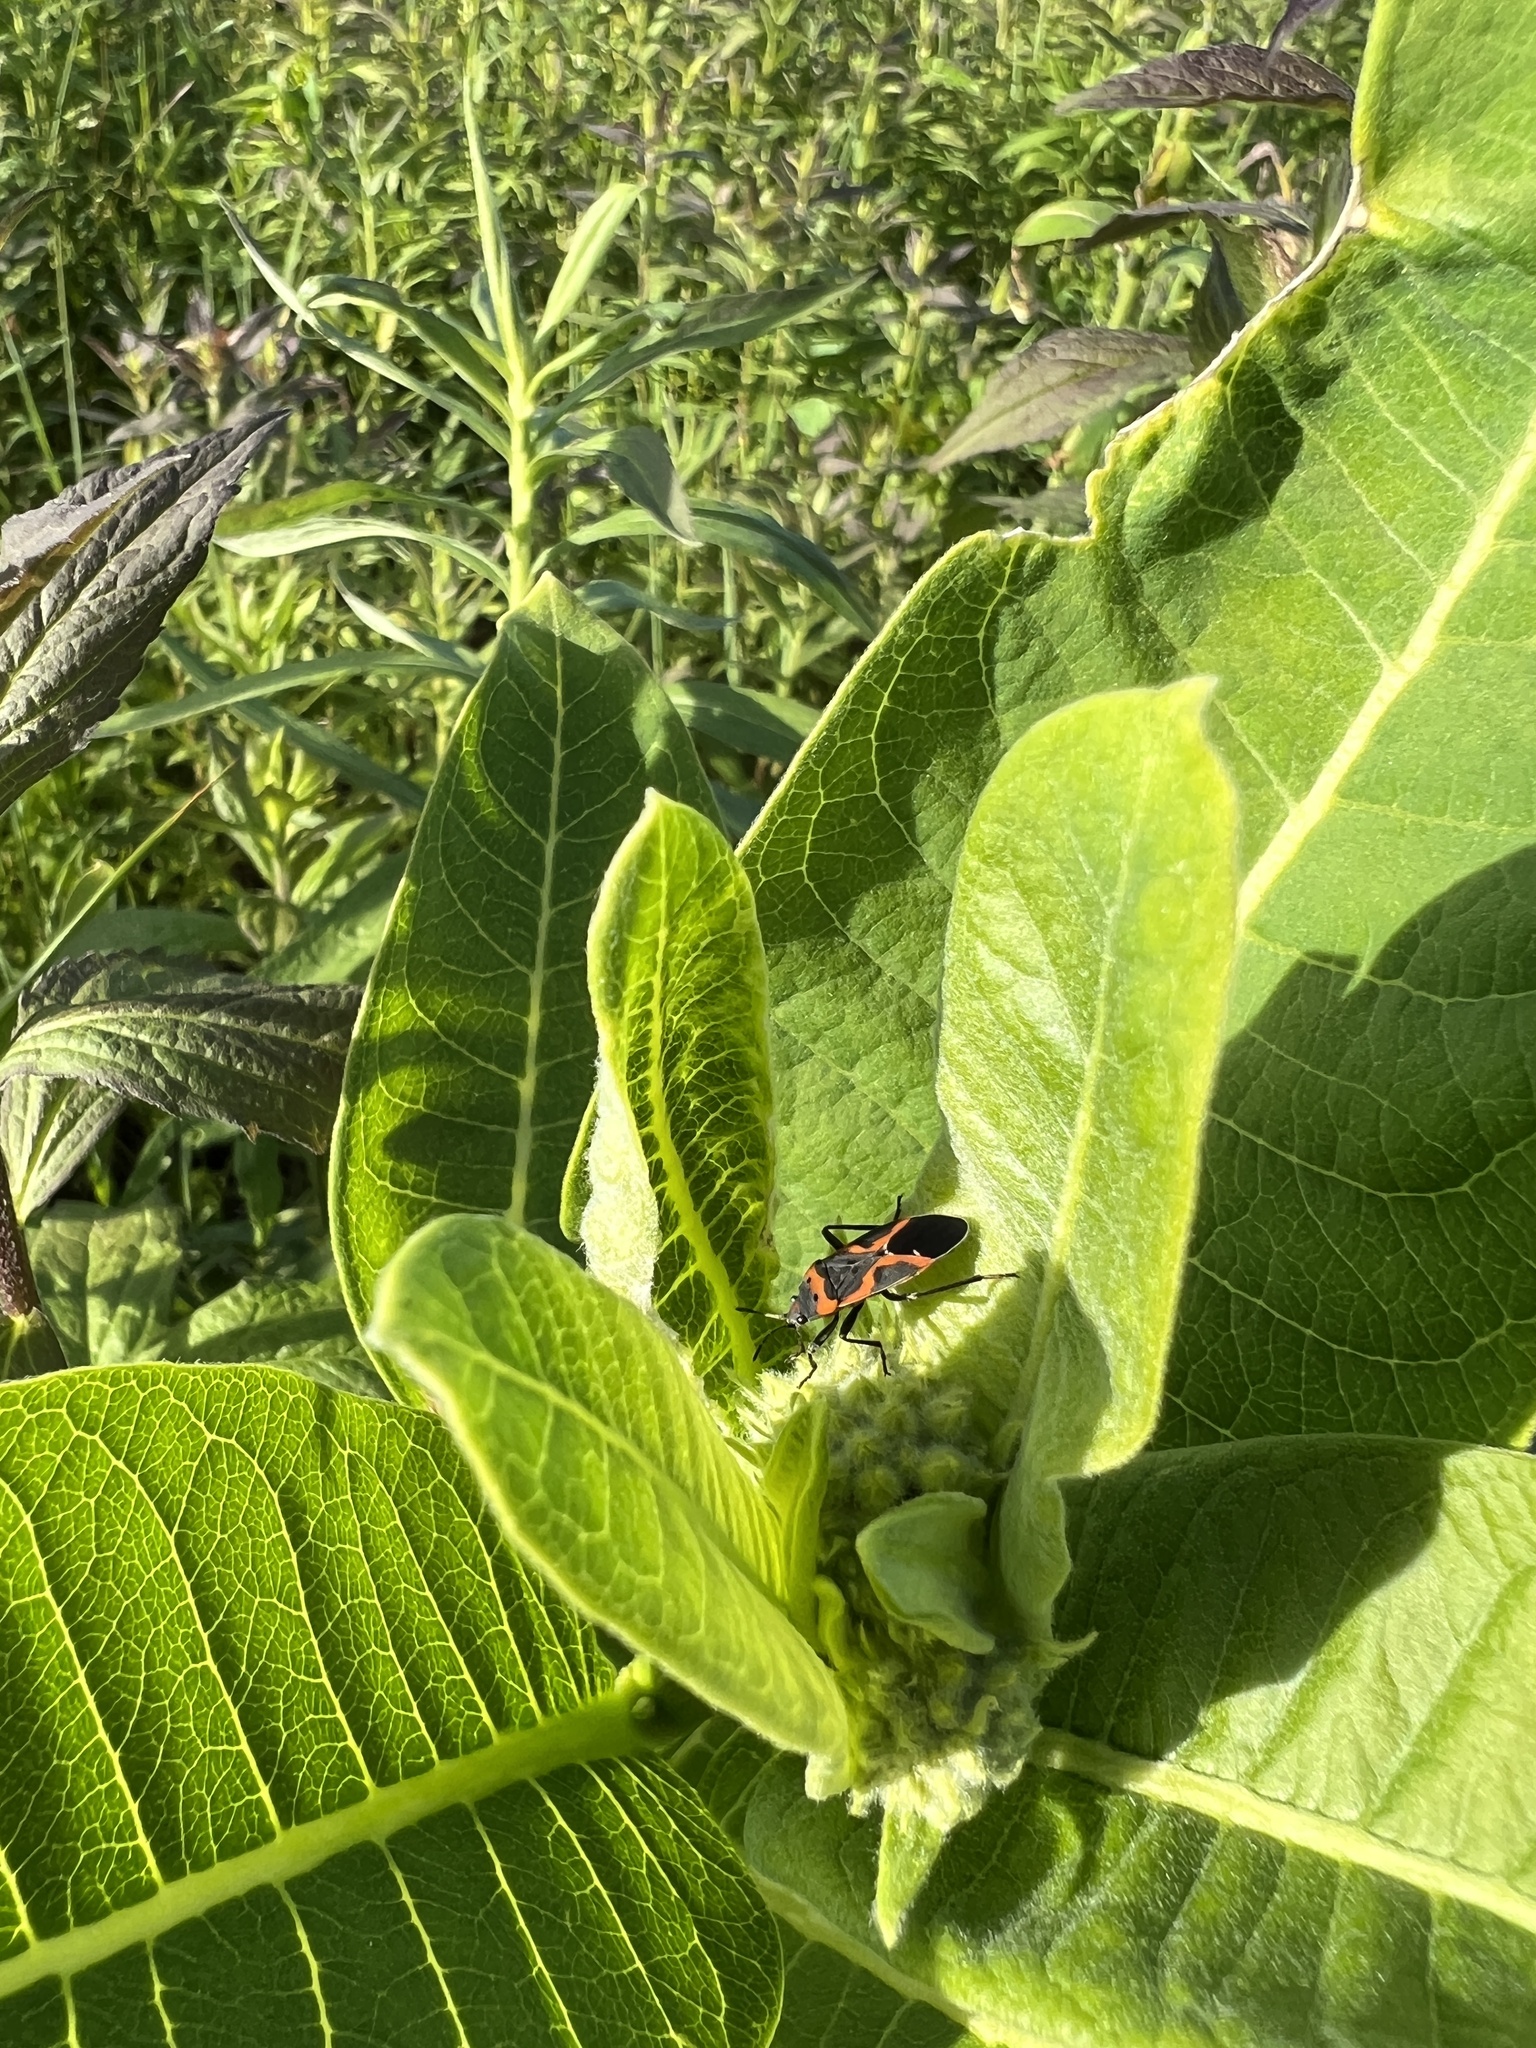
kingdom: Animalia
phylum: Arthropoda
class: Insecta
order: Hemiptera
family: Lygaeidae
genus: Lygaeus
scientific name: Lygaeus kalmii
